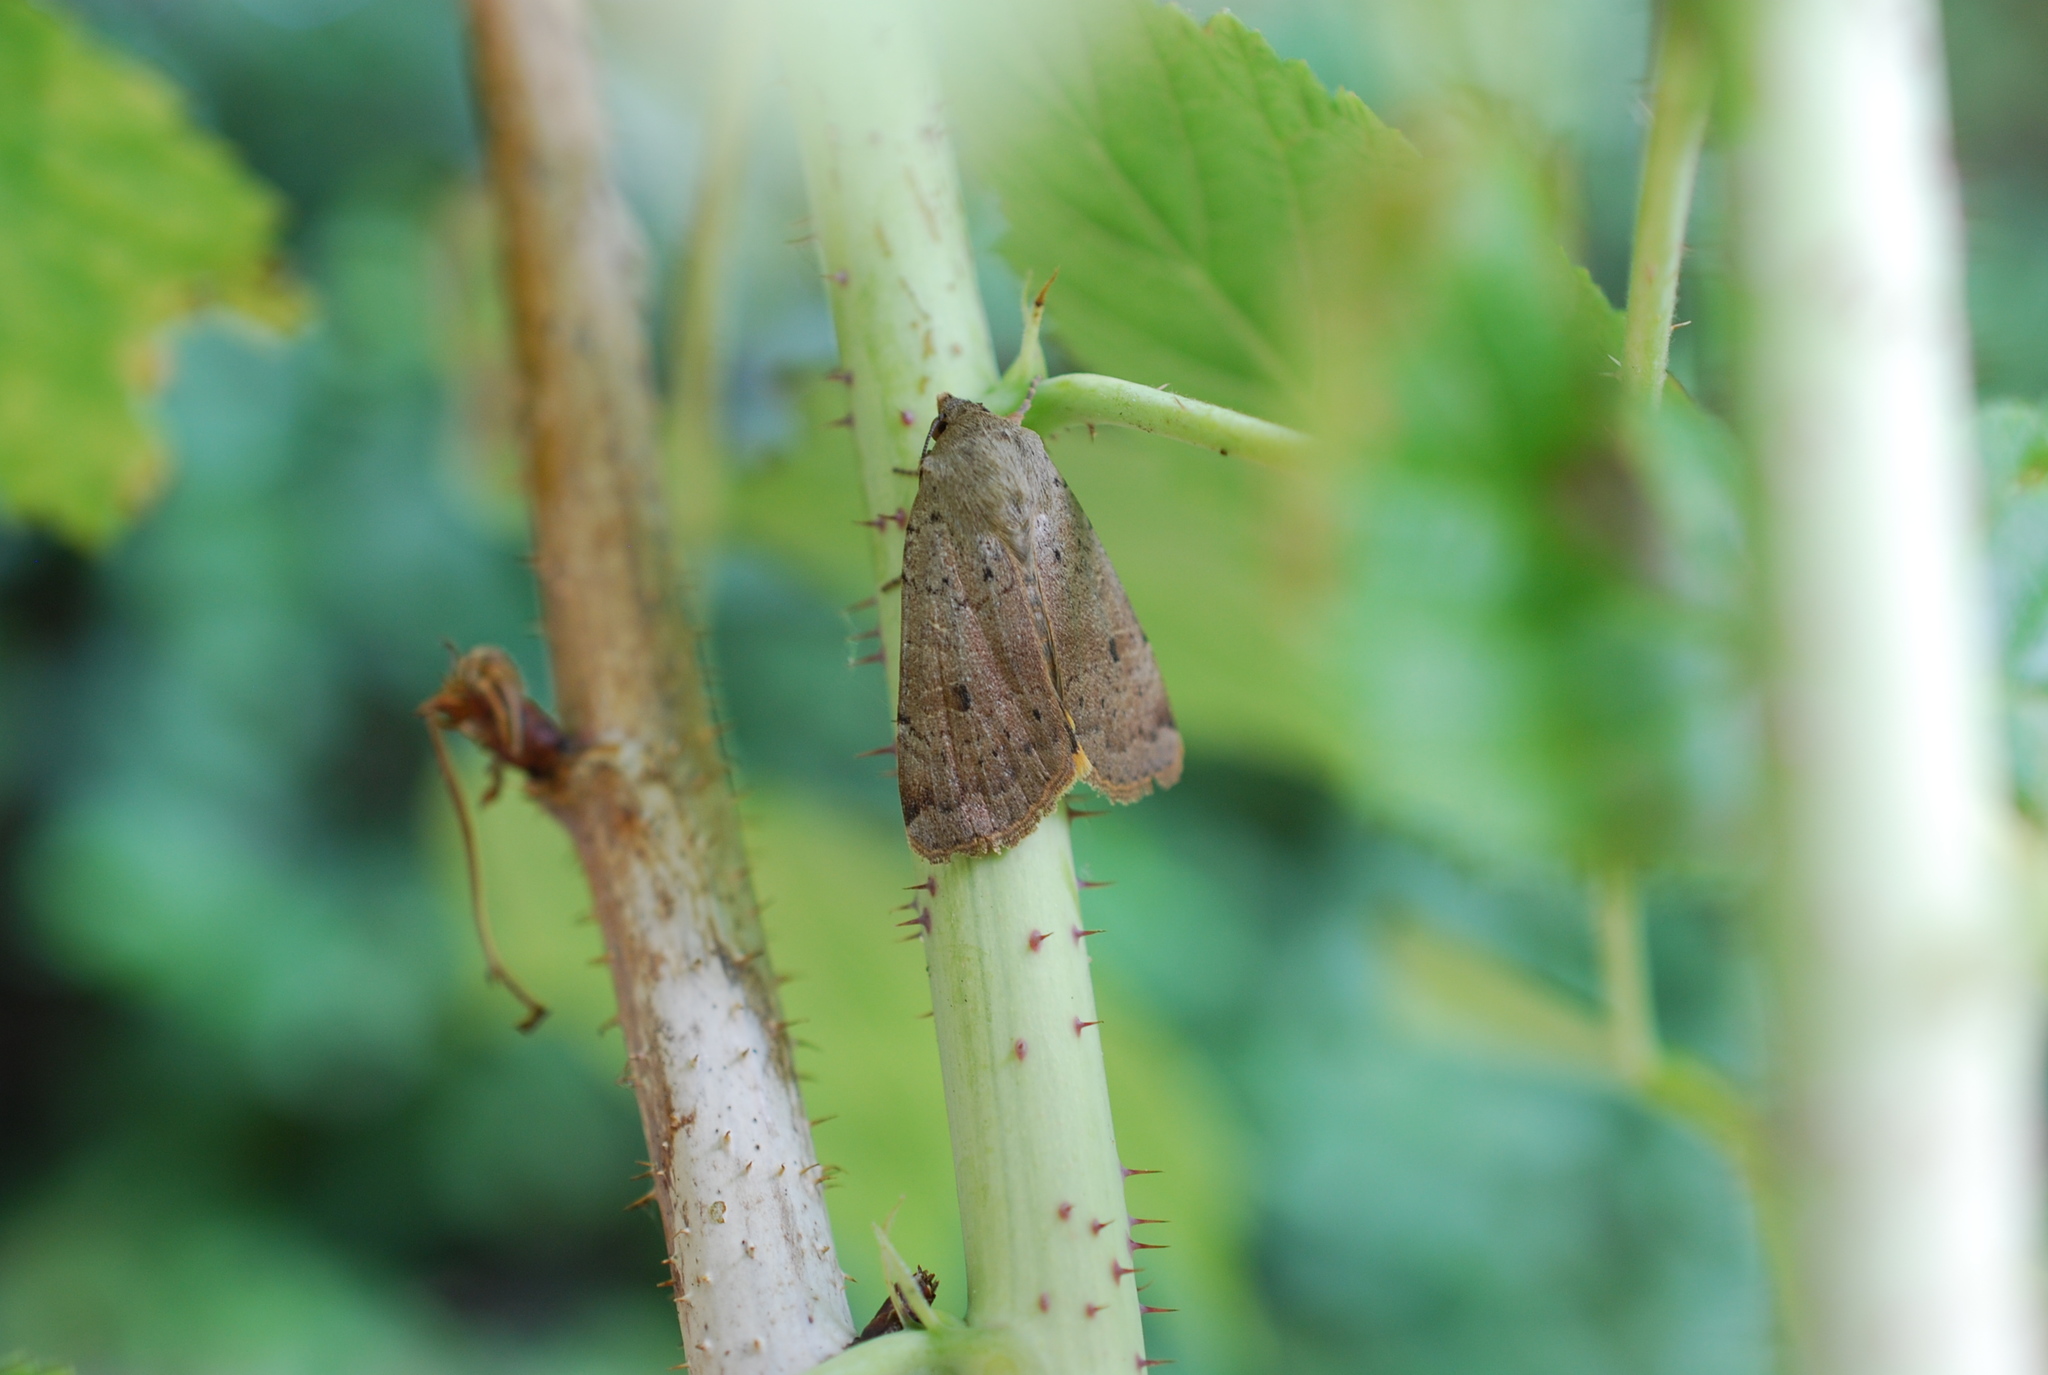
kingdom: Animalia
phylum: Arthropoda
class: Insecta
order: Lepidoptera
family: Noctuidae
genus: Noctua
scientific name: Noctua comes
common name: Lesser yellow underwing
